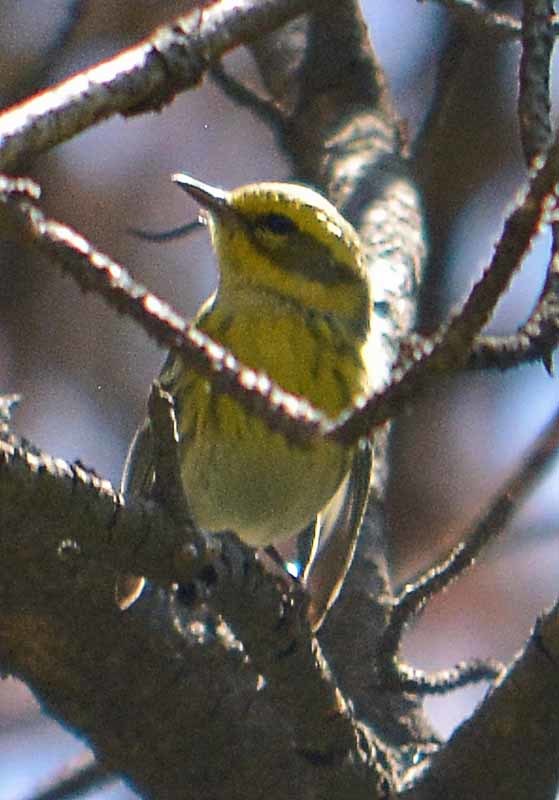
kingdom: Animalia
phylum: Chordata
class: Aves
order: Passeriformes
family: Parulidae
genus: Setophaga
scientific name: Setophaga townsendi
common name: Townsend's warbler
